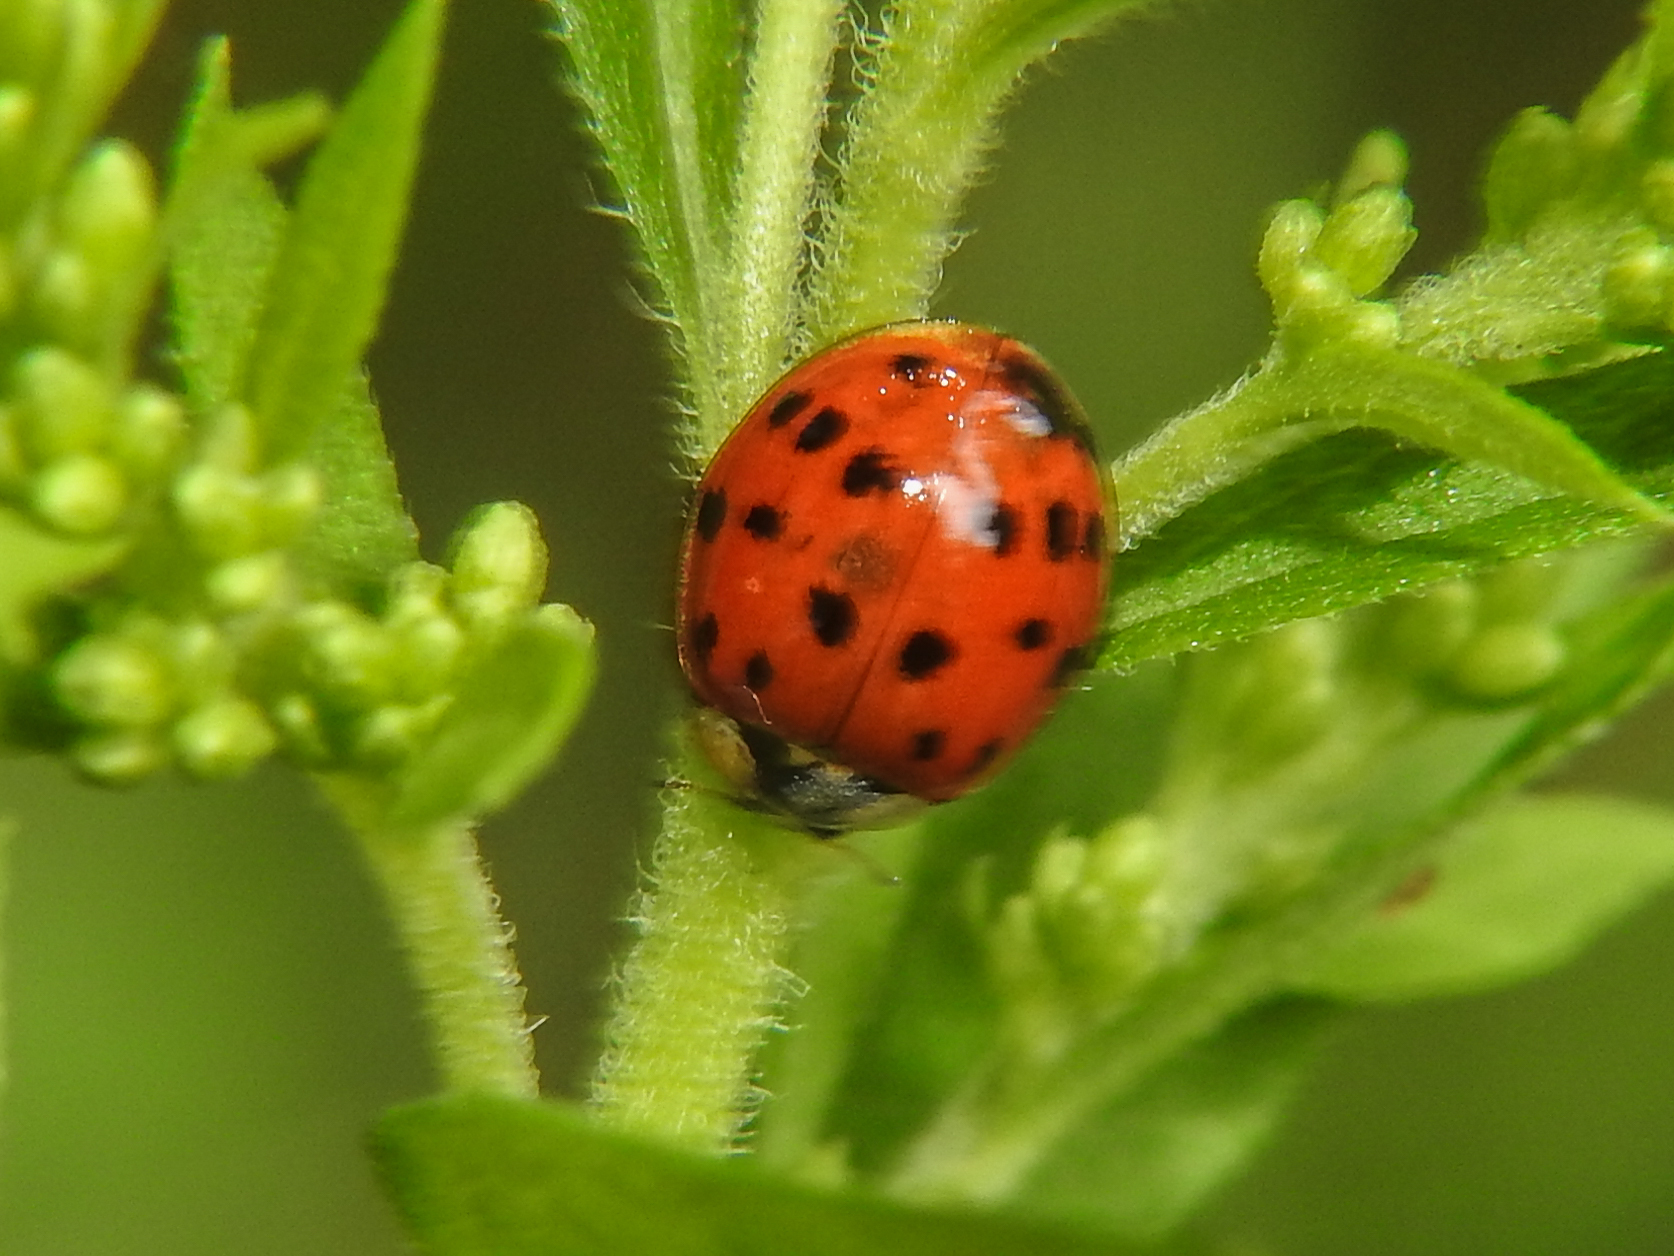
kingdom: Animalia
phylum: Arthropoda
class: Insecta
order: Coleoptera
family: Coccinellidae
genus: Harmonia
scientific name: Harmonia axyridis
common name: Harlequin ladybird
